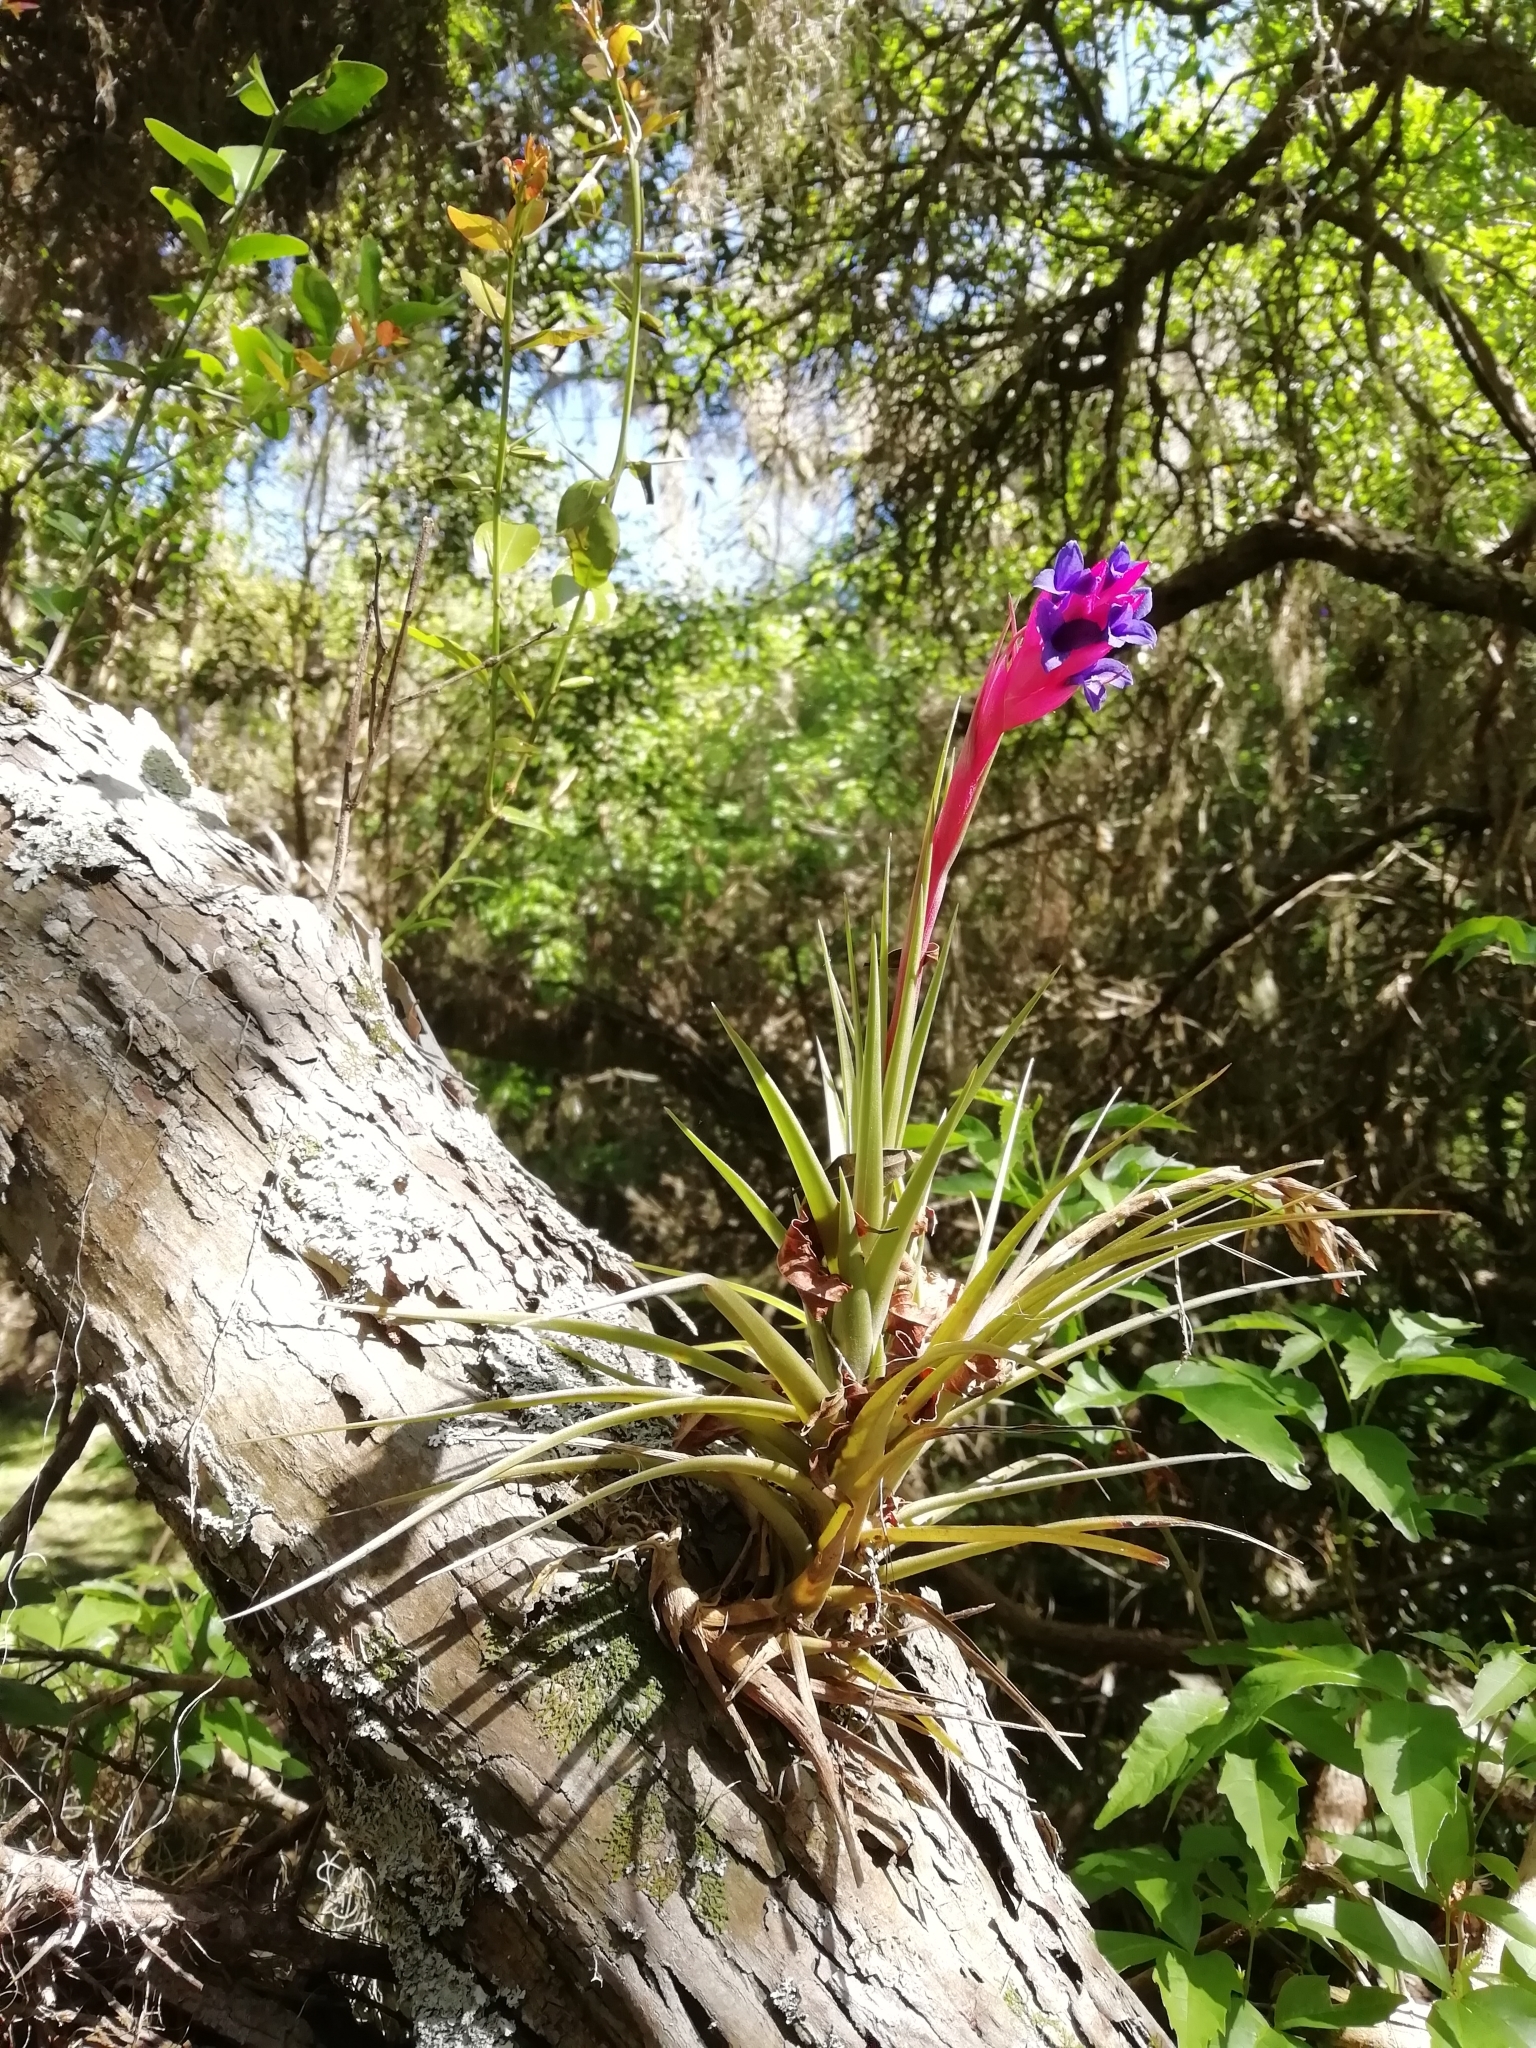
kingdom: Plantae
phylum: Tracheophyta
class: Liliopsida
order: Poales
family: Bromeliaceae
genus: Tillandsia
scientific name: Tillandsia aeranthos
